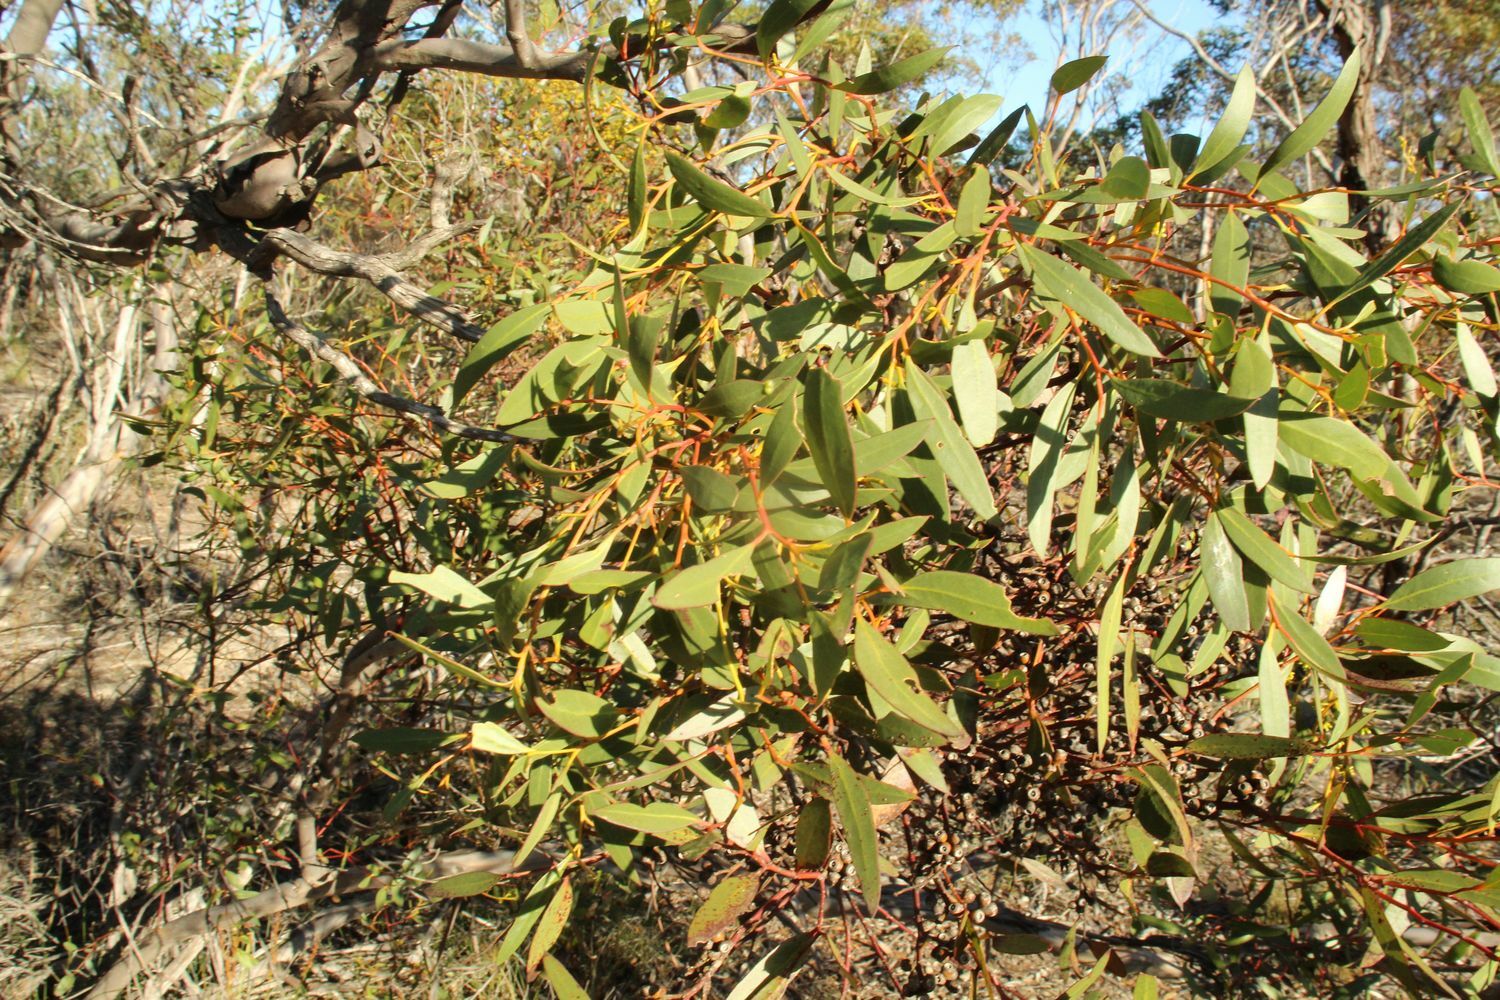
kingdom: Plantae
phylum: Tracheophyta
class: Magnoliopsida
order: Myrtales
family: Myrtaceae
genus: Eucalyptus
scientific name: Eucalyptus uncinata
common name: Hooked-leaved mallee
